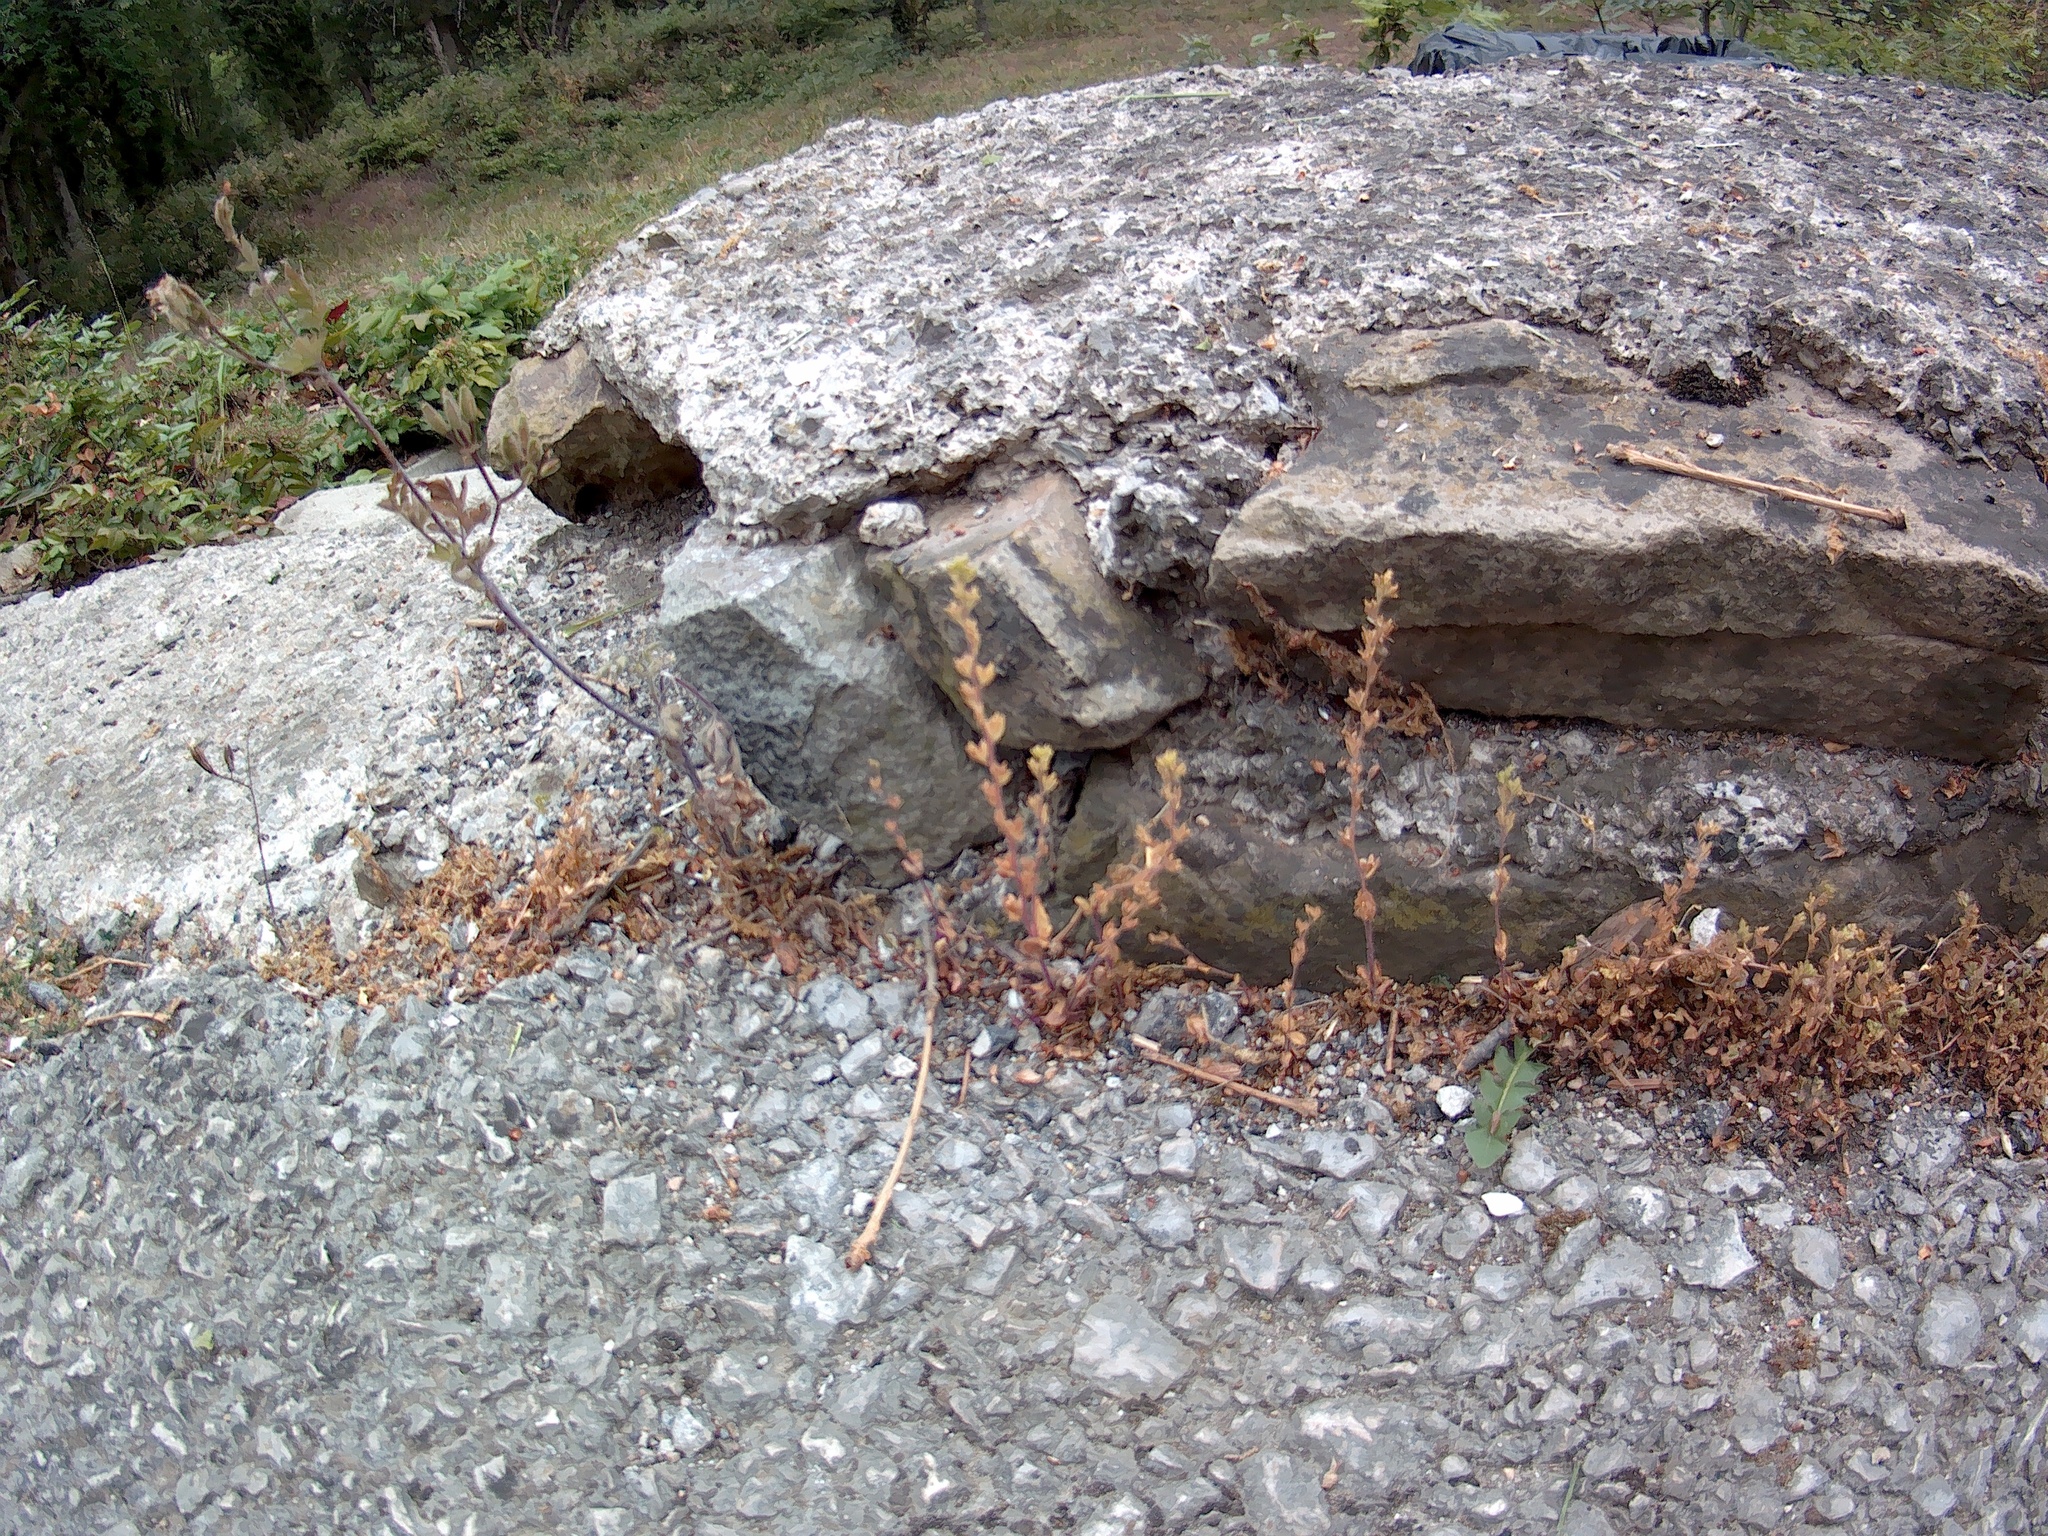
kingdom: Plantae
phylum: Tracheophyta
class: Magnoliopsida
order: Lamiales
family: Plantaginaceae
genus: Veronica
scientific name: Veronica arvensis
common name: Corn speedwell
